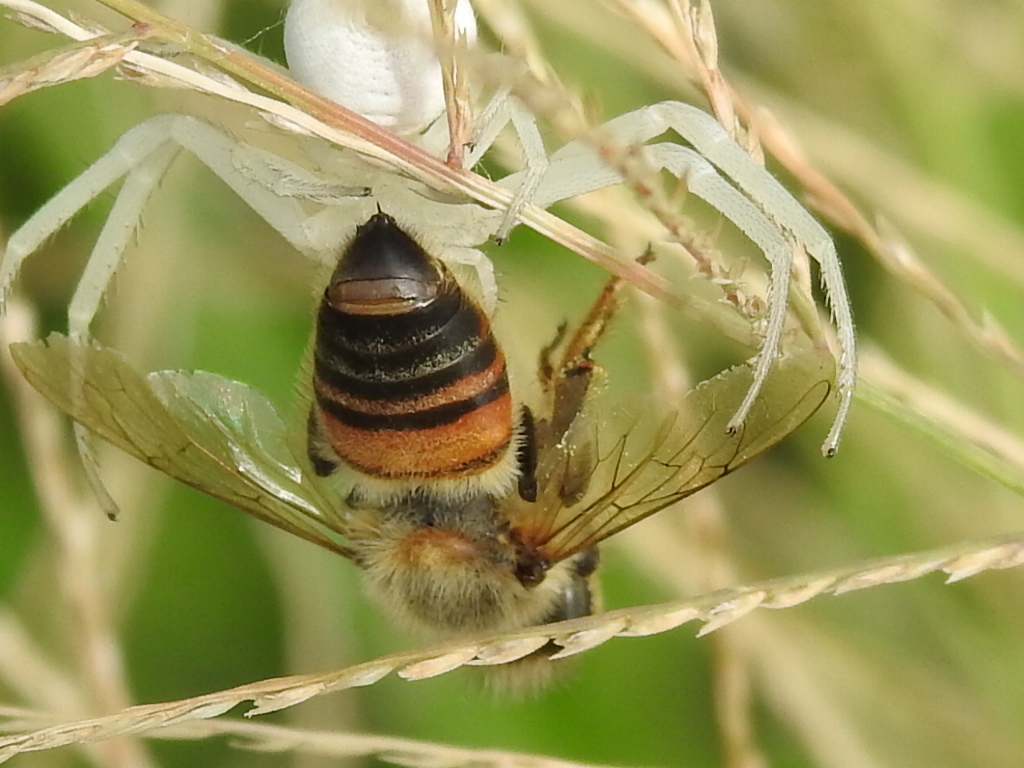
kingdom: Animalia
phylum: Arthropoda
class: Insecta
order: Hymenoptera
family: Apidae
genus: Apis
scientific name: Apis mellifera
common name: Honey bee
